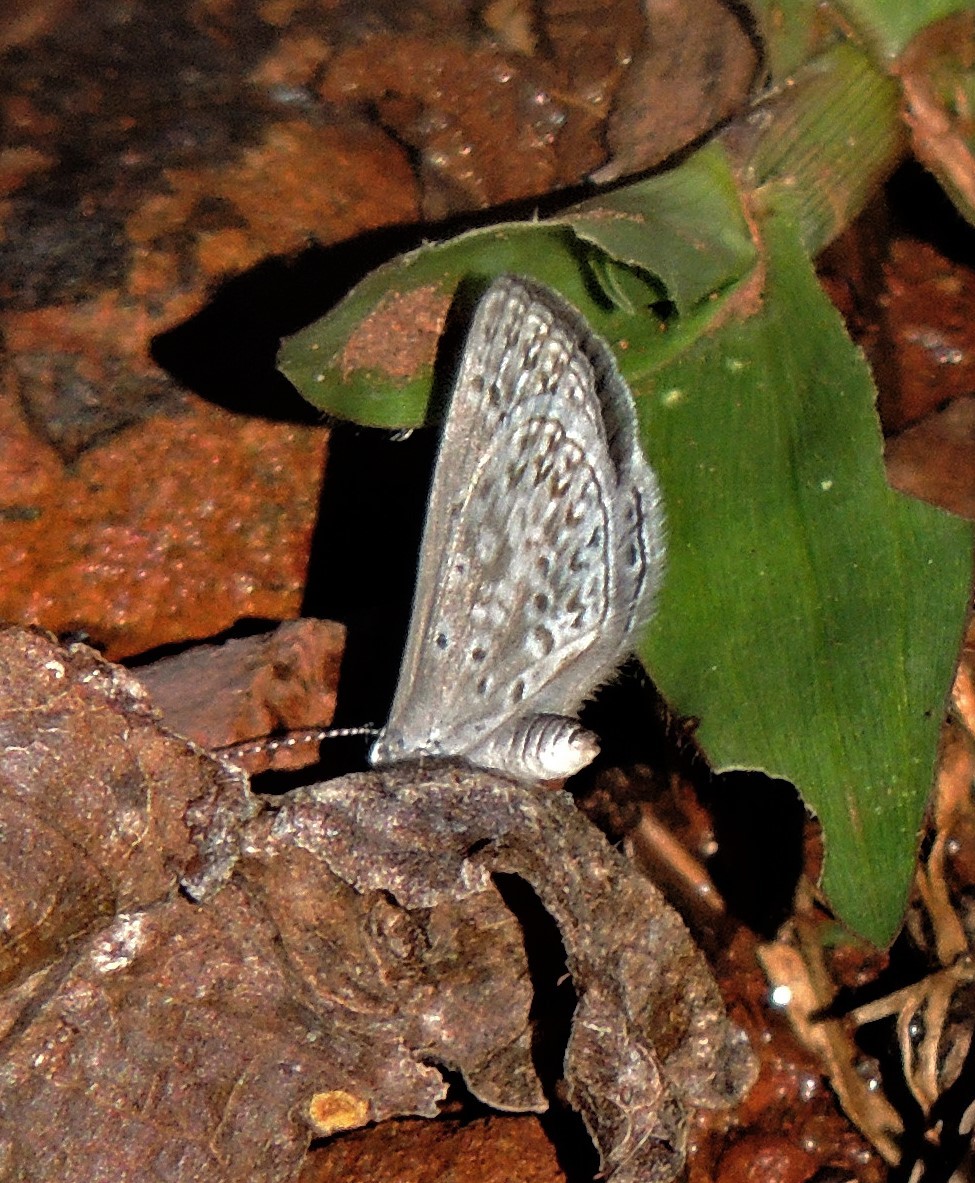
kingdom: Animalia
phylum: Arthropoda
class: Insecta
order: Lepidoptera
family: Lycaenidae
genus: Elkalyce
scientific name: Elkalyce cogina
